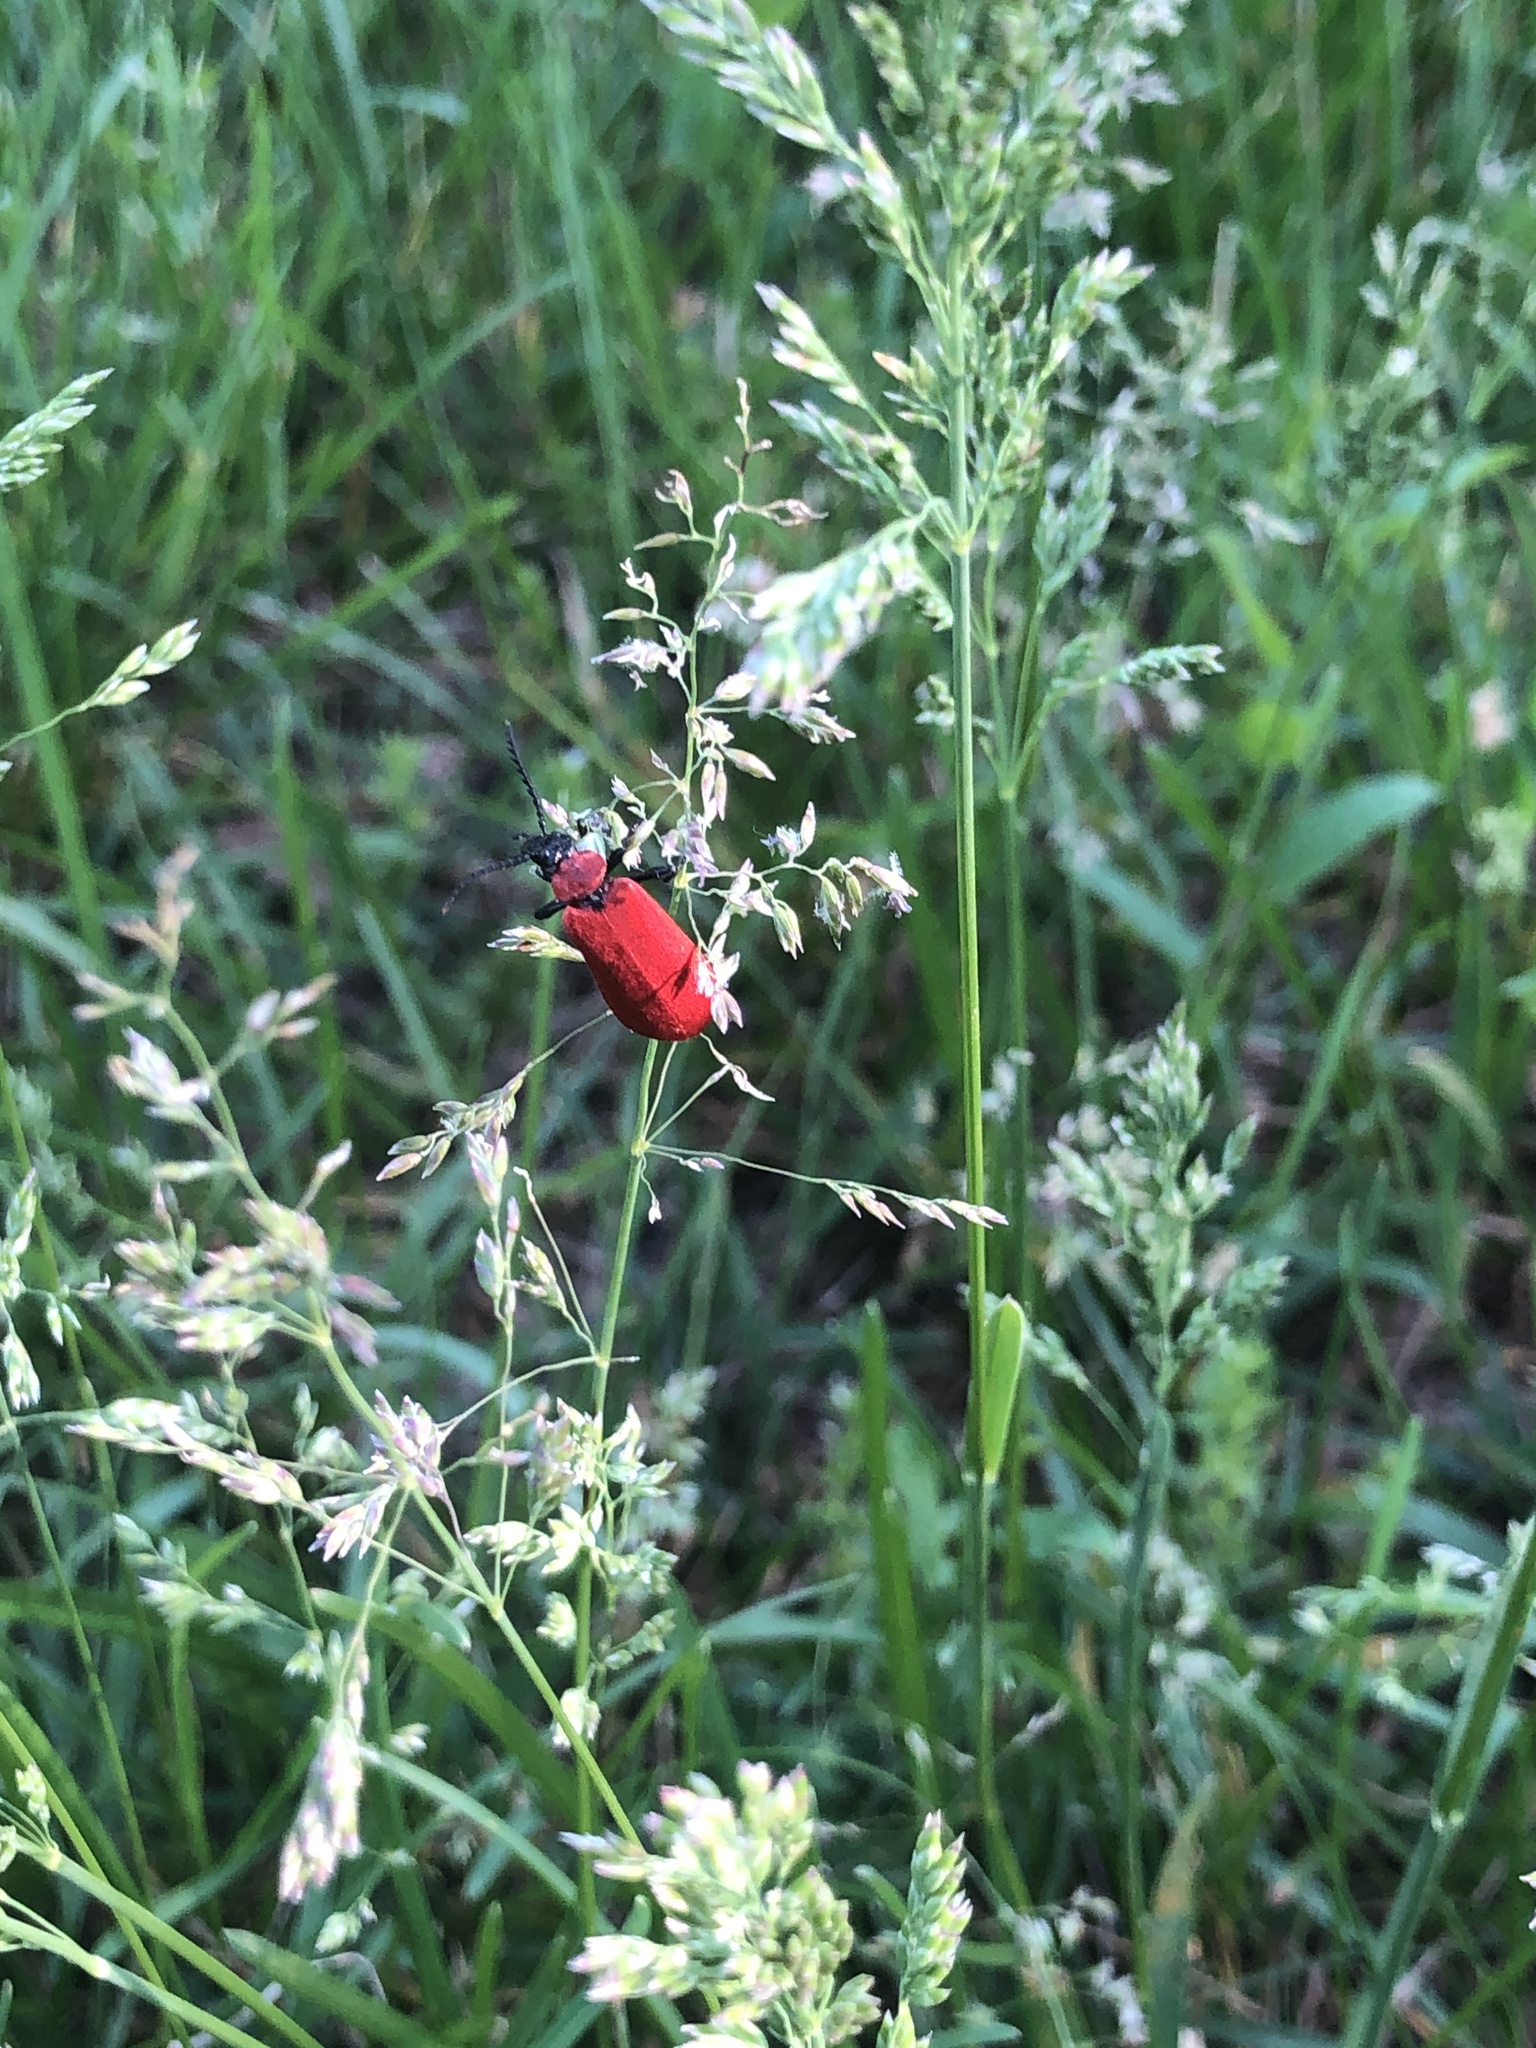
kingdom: Animalia
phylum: Arthropoda
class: Insecta
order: Coleoptera
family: Pyrochroidae
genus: Pyrochroa
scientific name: Pyrochroa coccinea
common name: Black-headed cardinal beetle
